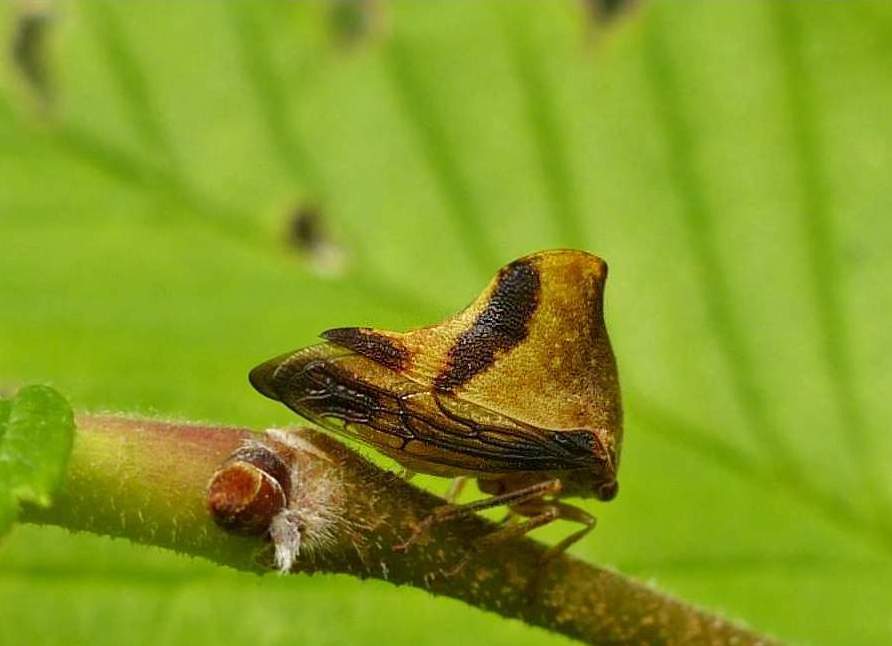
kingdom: Animalia
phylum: Arthropoda
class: Insecta
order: Hemiptera
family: Membracidae
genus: Helonica
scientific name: Helonica excelsa
